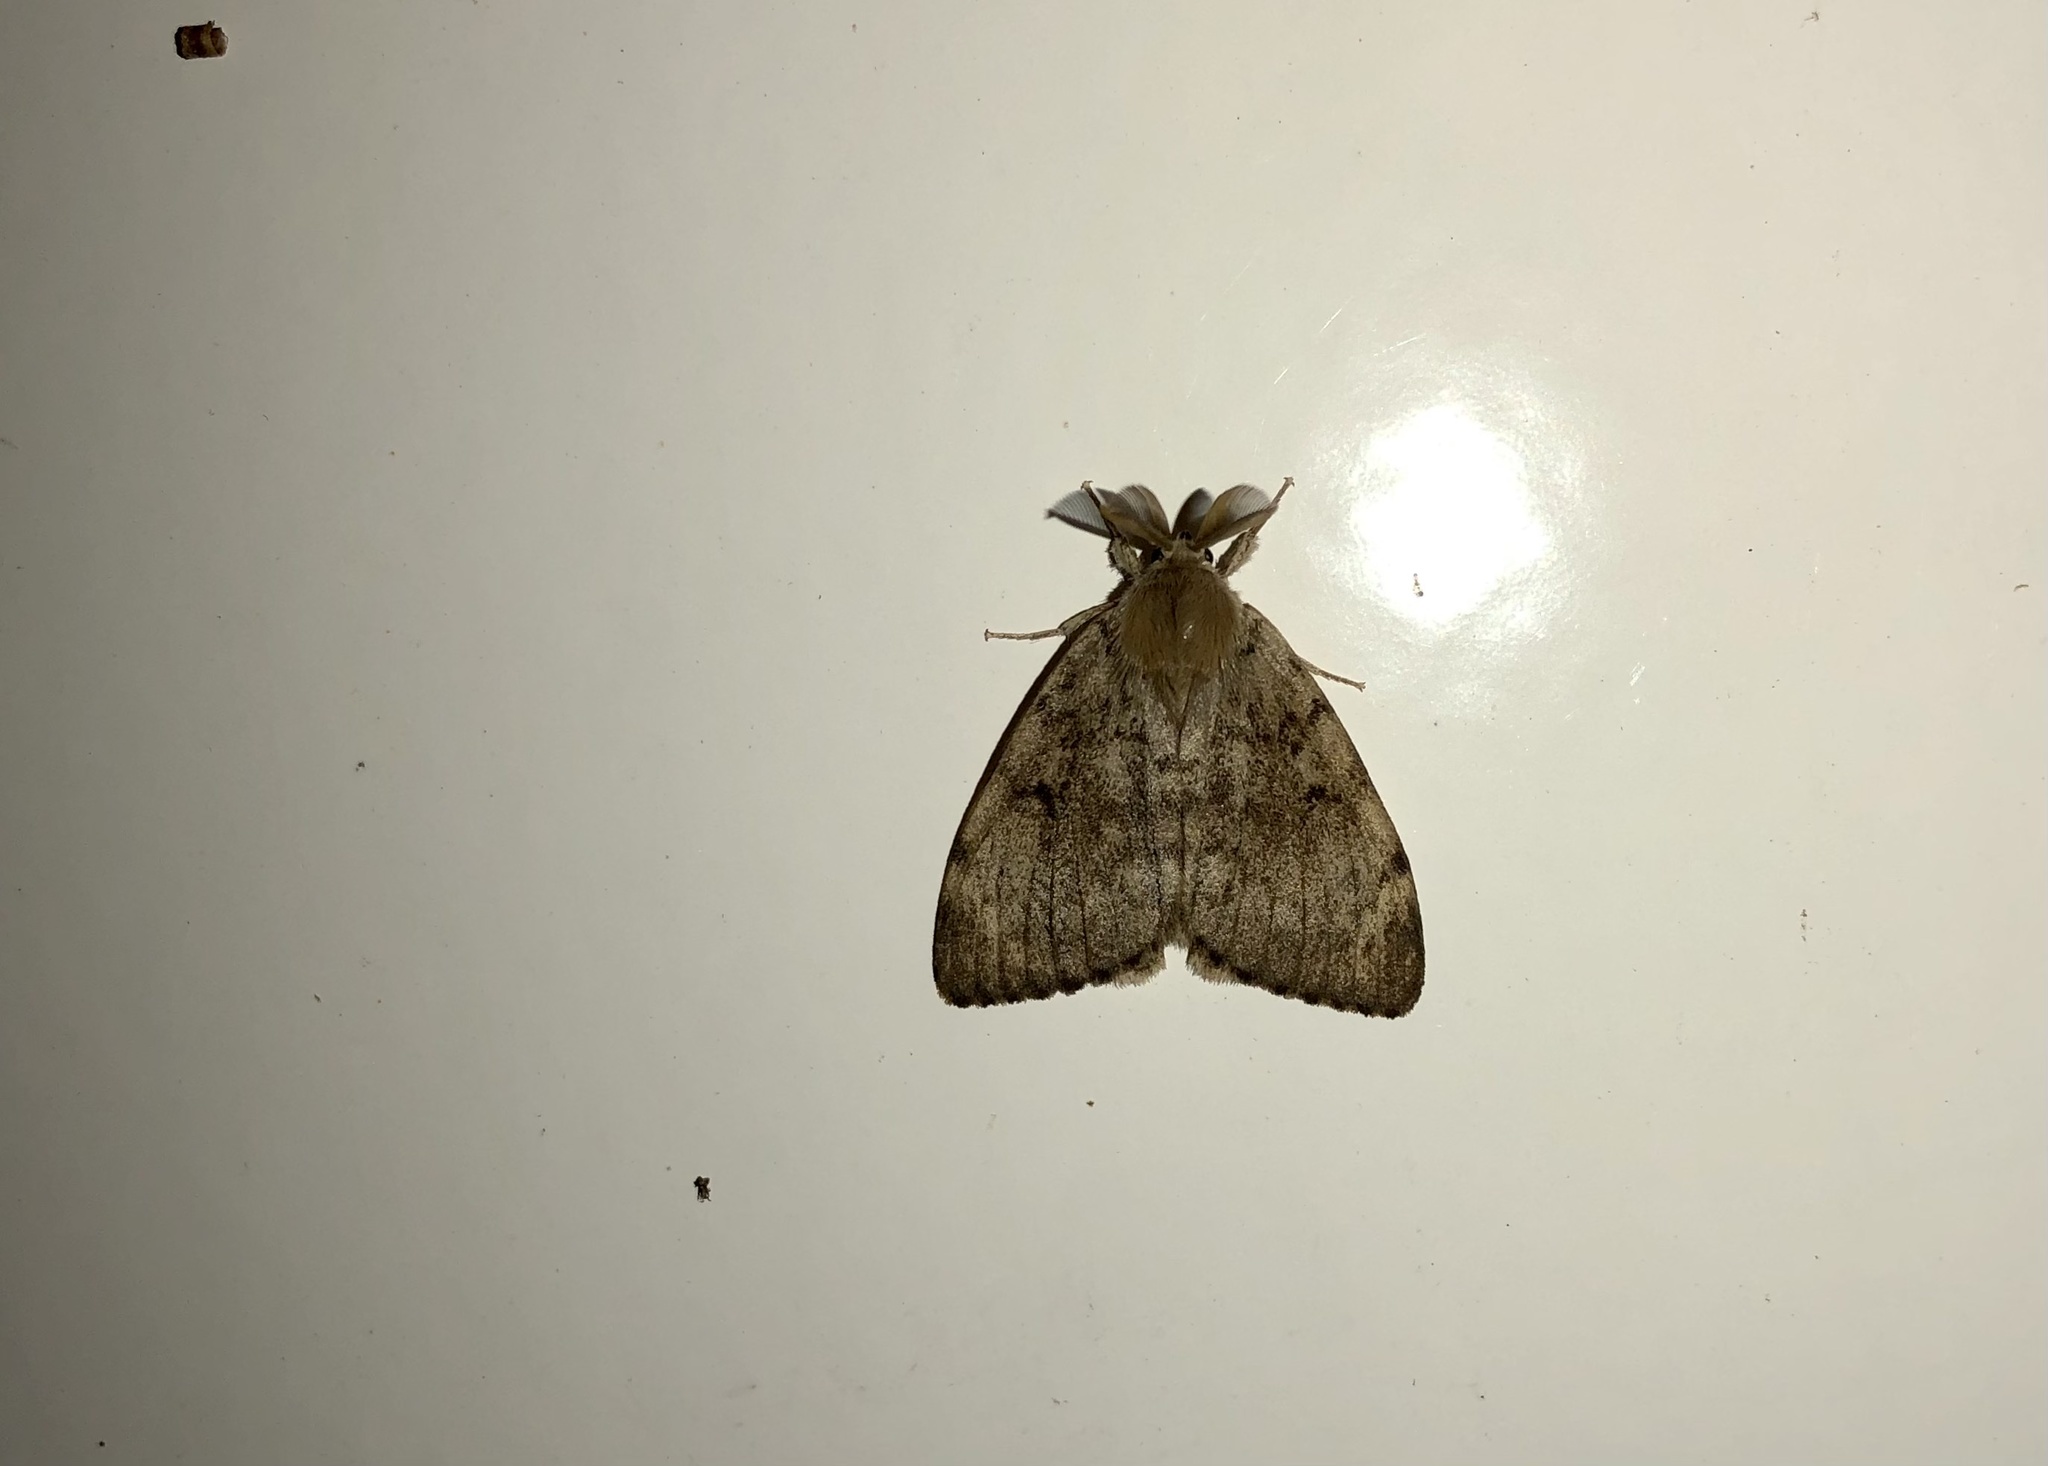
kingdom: Animalia
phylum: Arthropoda
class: Insecta
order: Lepidoptera
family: Erebidae
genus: Lymantria
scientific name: Lymantria dispar
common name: Gypsy moth
